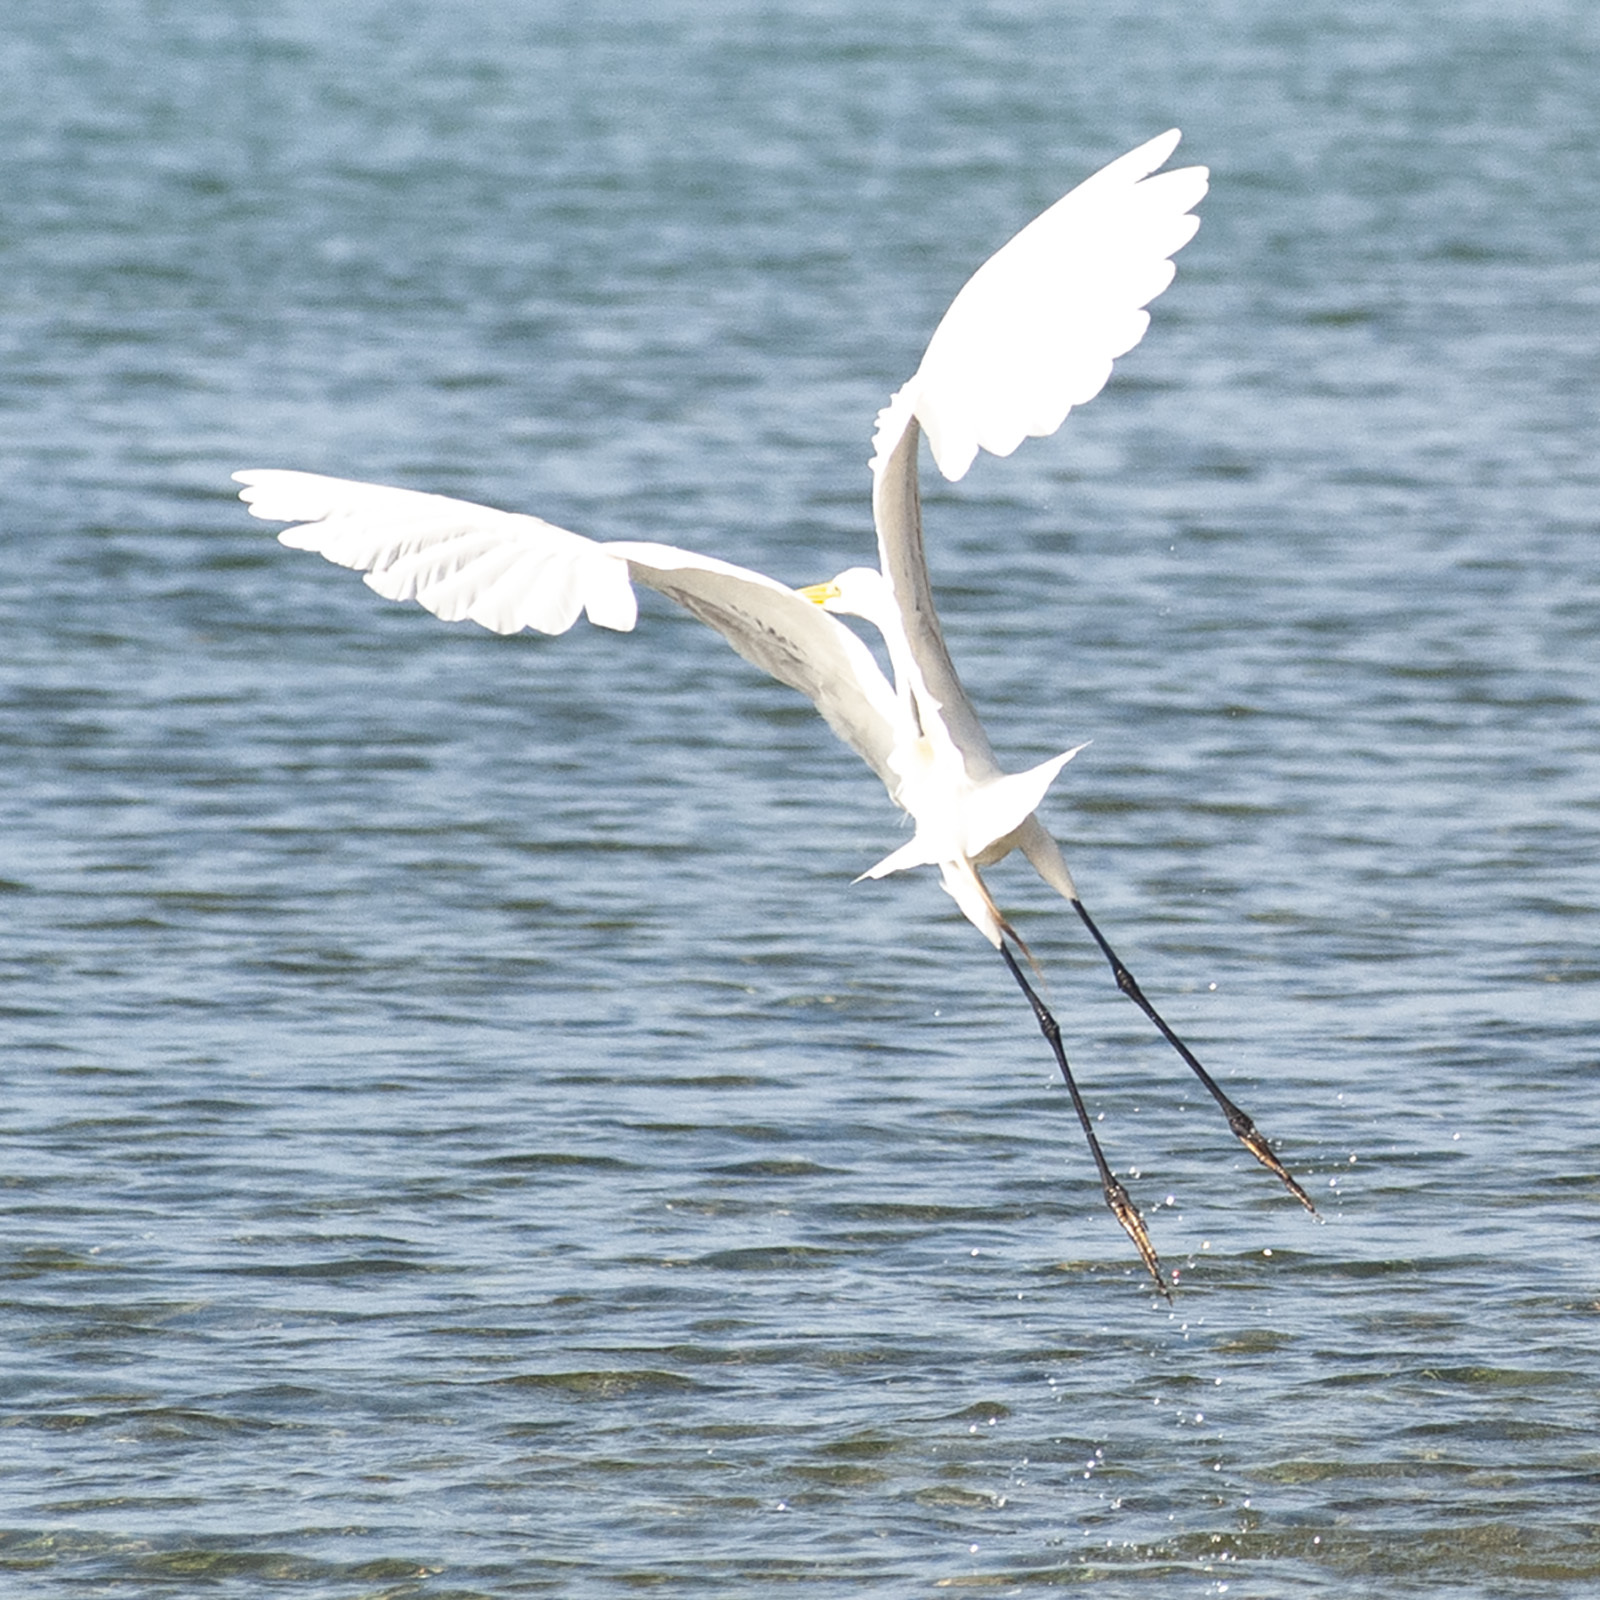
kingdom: Animalia
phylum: Chordata
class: Aves
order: Pelecaniformes
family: Ardeidae
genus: Ardea
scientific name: Ardea alba
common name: Great egret
